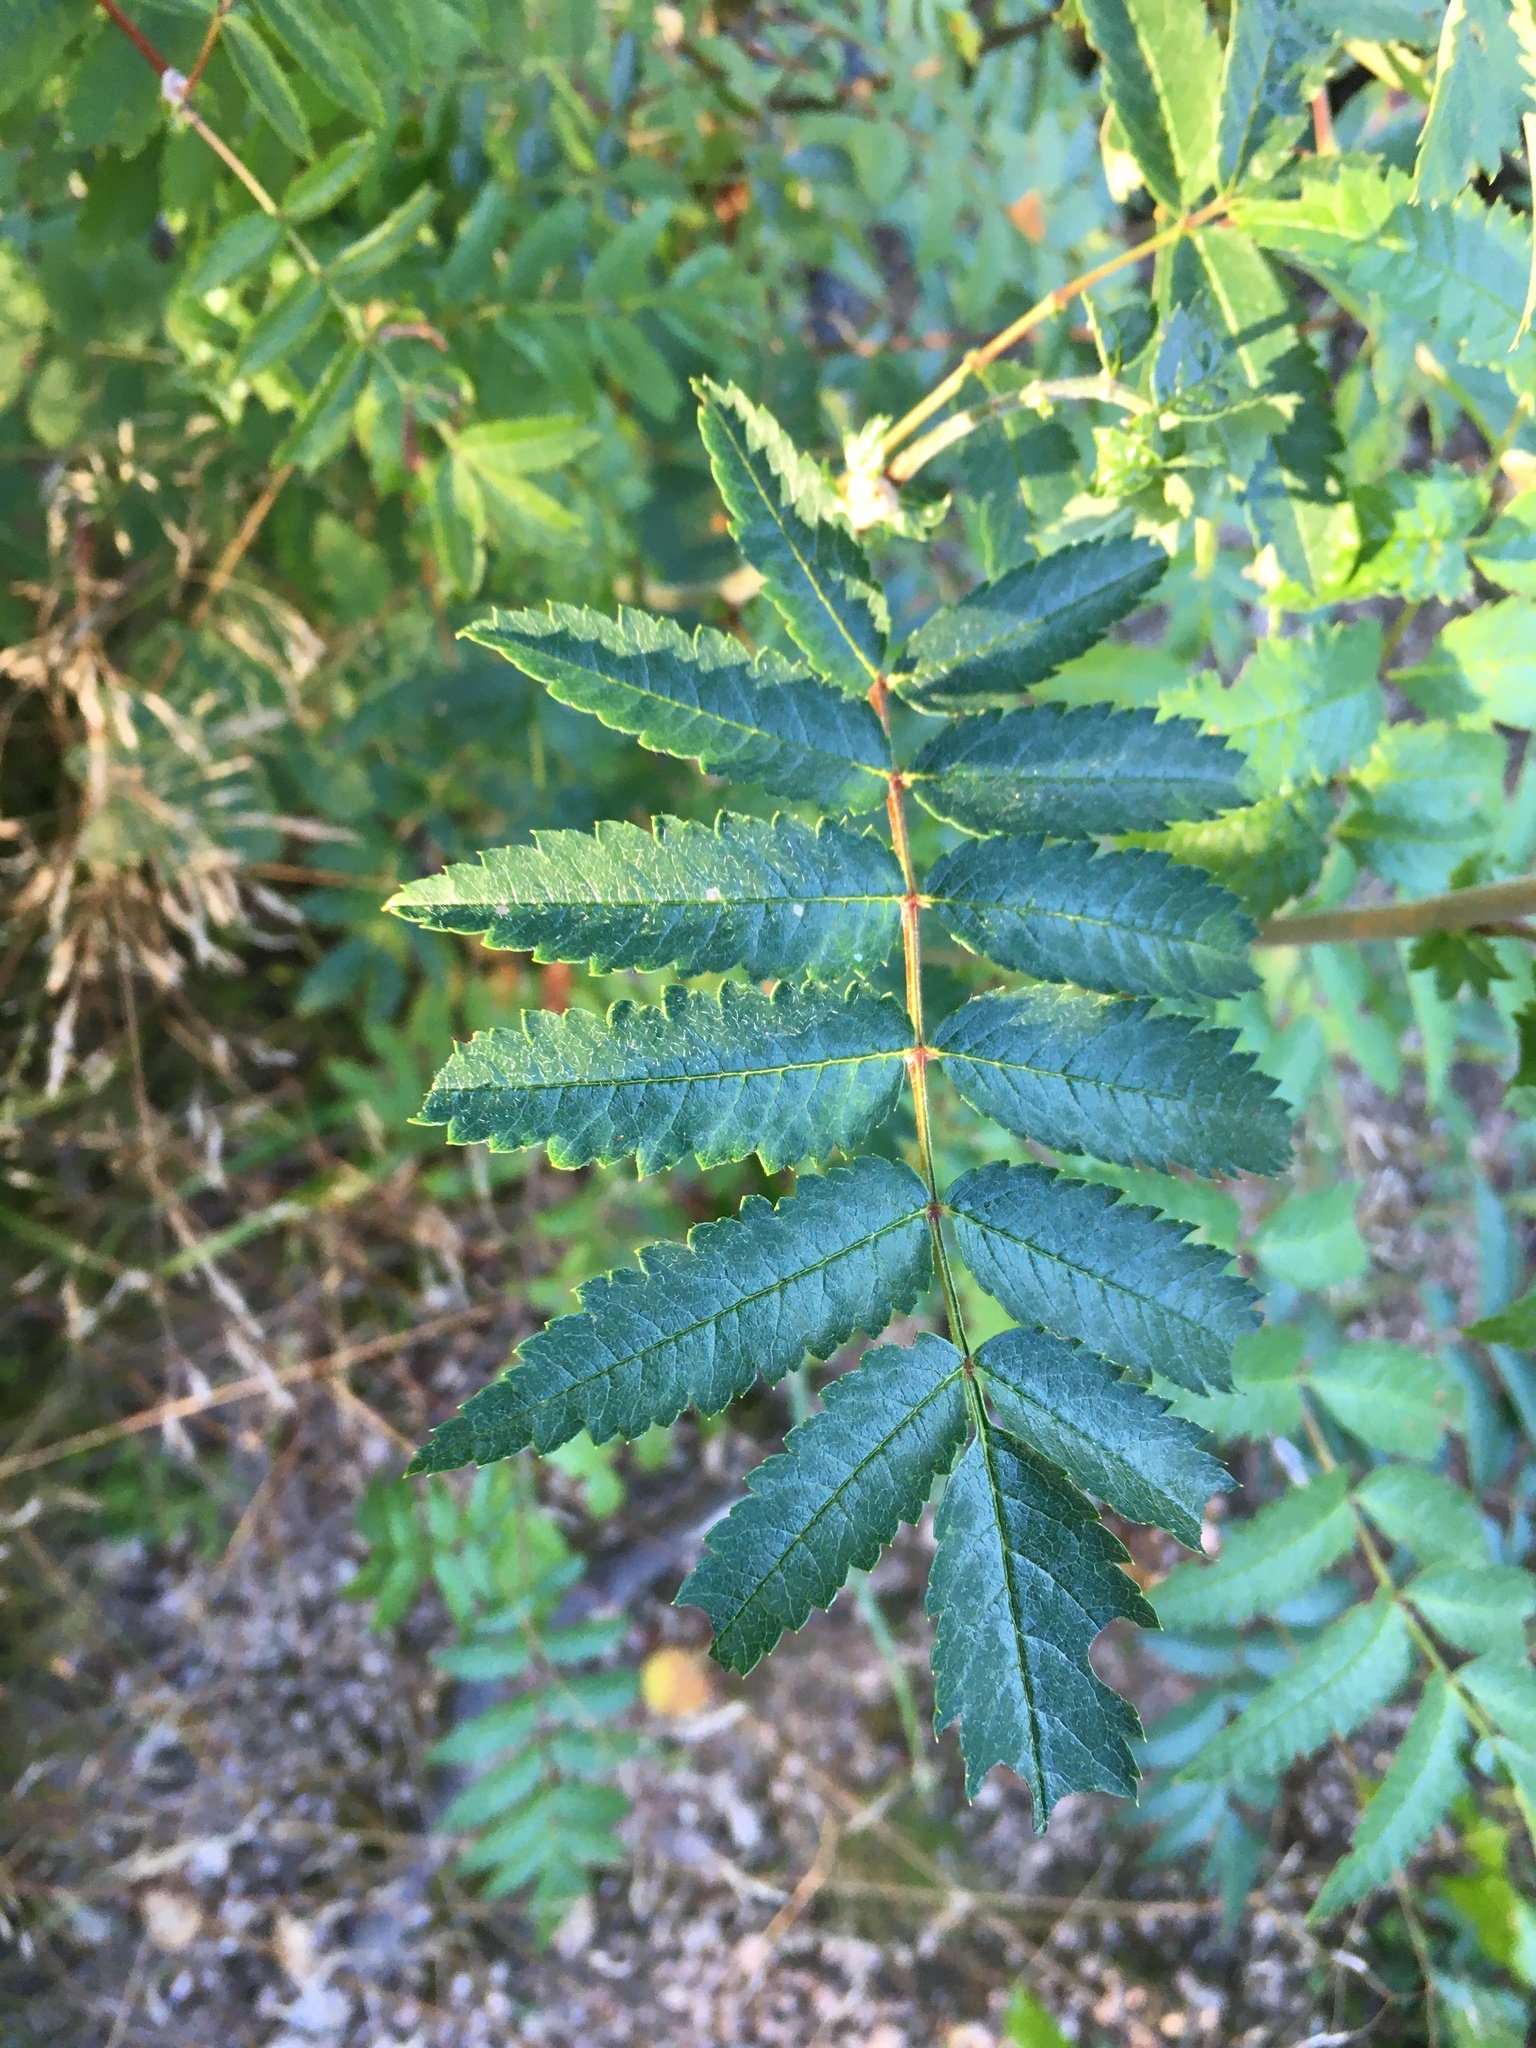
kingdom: Plantae
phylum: Tracheophyta
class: Magnoliopsida
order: Rosales
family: Rosaceae
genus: Sorbus
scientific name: Sorbus aucuparia
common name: Rowan
